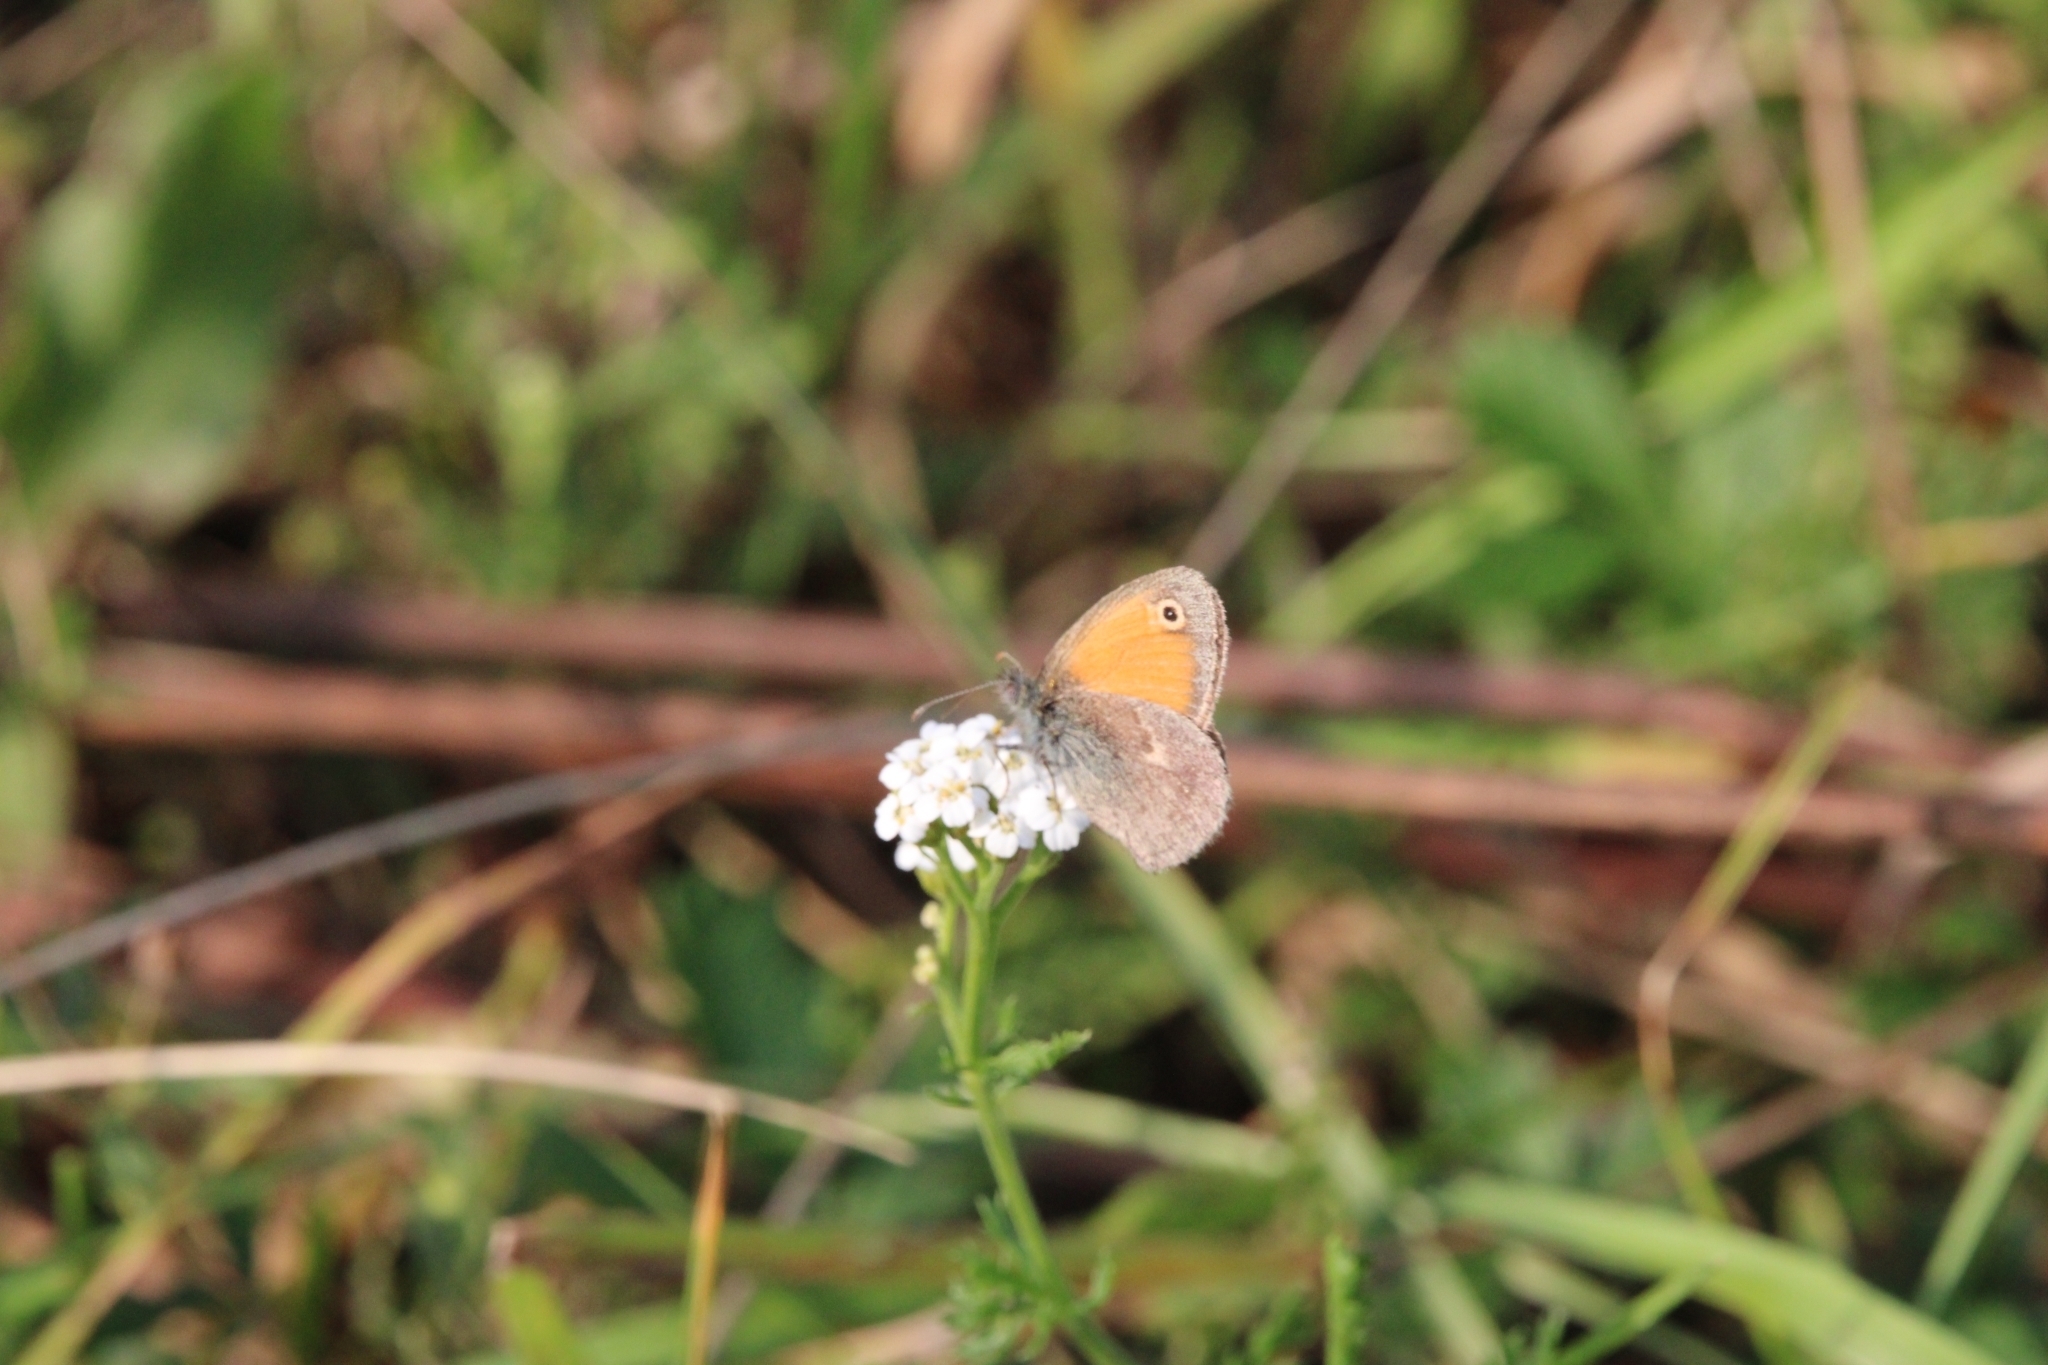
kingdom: Animalia
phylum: Arthropoda
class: Insecta
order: Lepidoptera
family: Nymphalidae
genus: Coenonympha
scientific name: Coenonympha pamphilus
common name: Small heath
